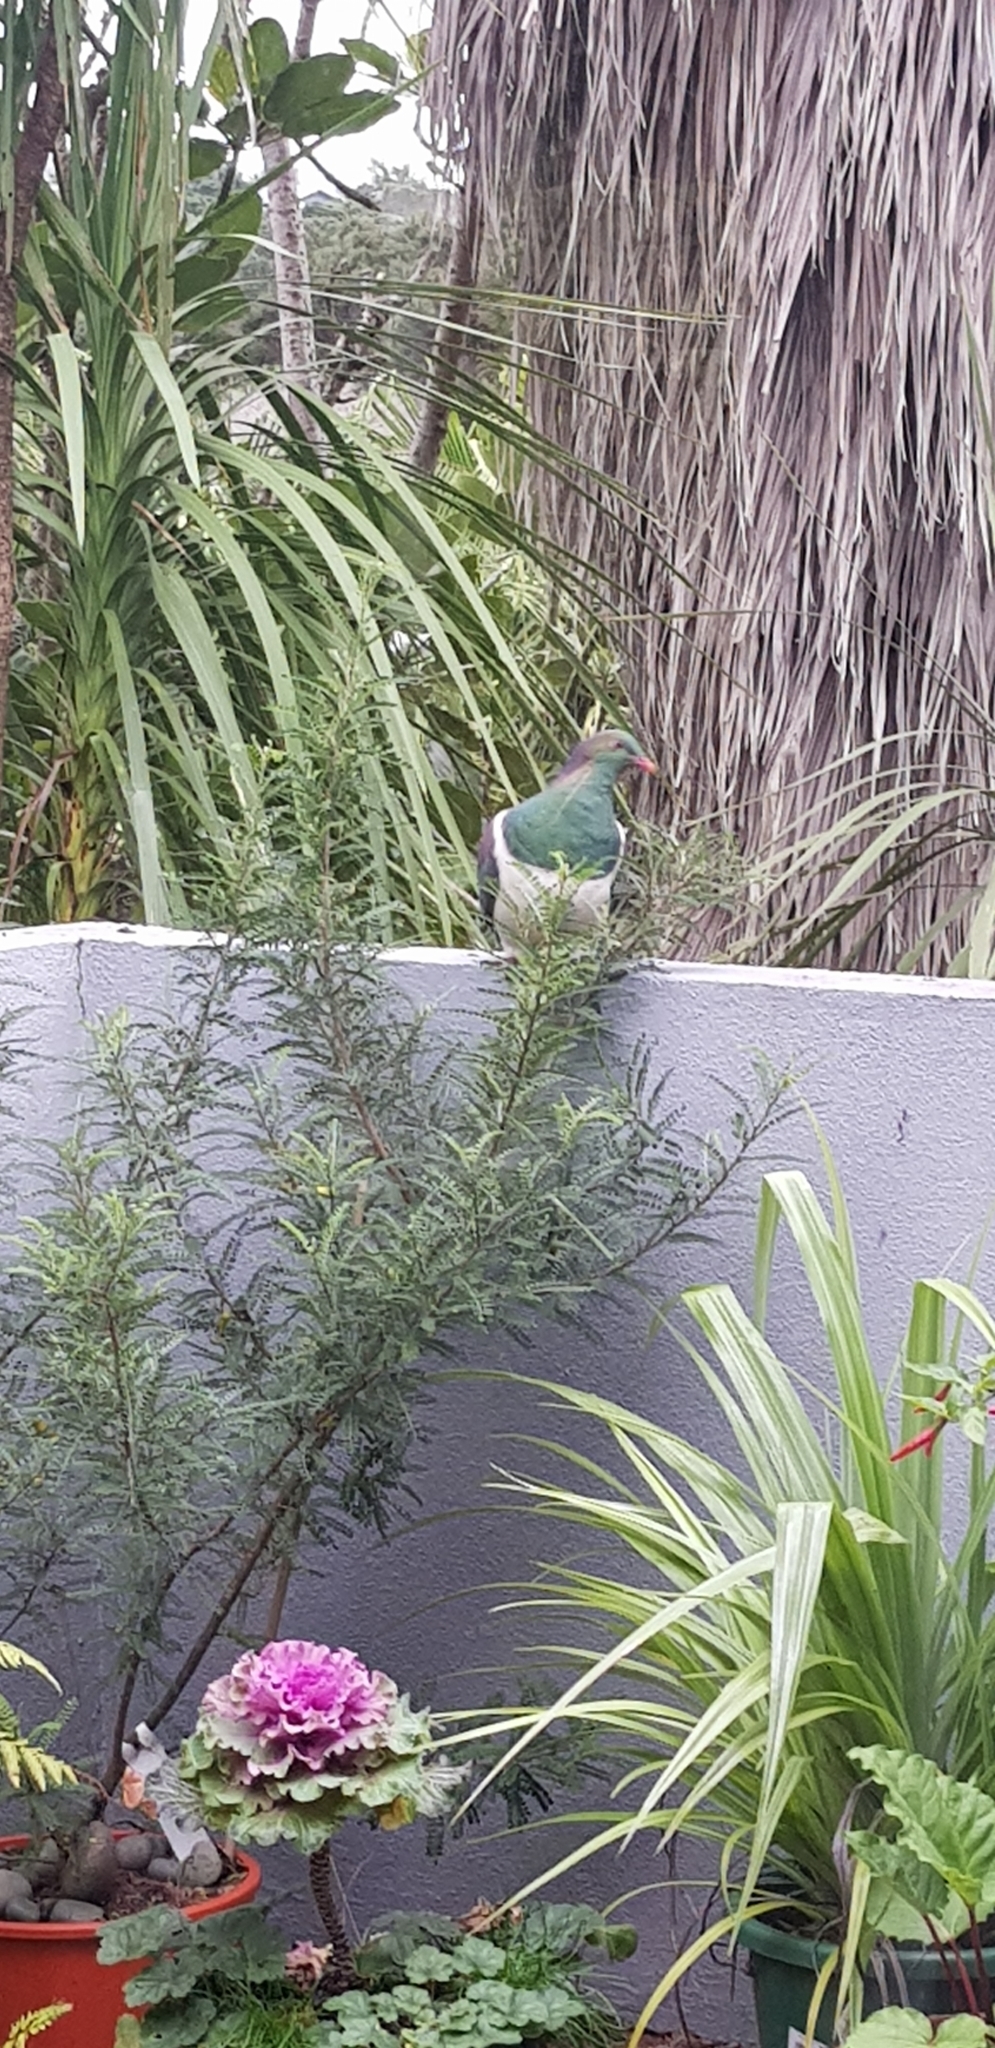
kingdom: Animalia
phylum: Chordata
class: Aves
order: Columbiformes
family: Columbidae
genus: Hemiphaga
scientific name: Hemiphaga novaeseelandiae
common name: New zealand pigeon
